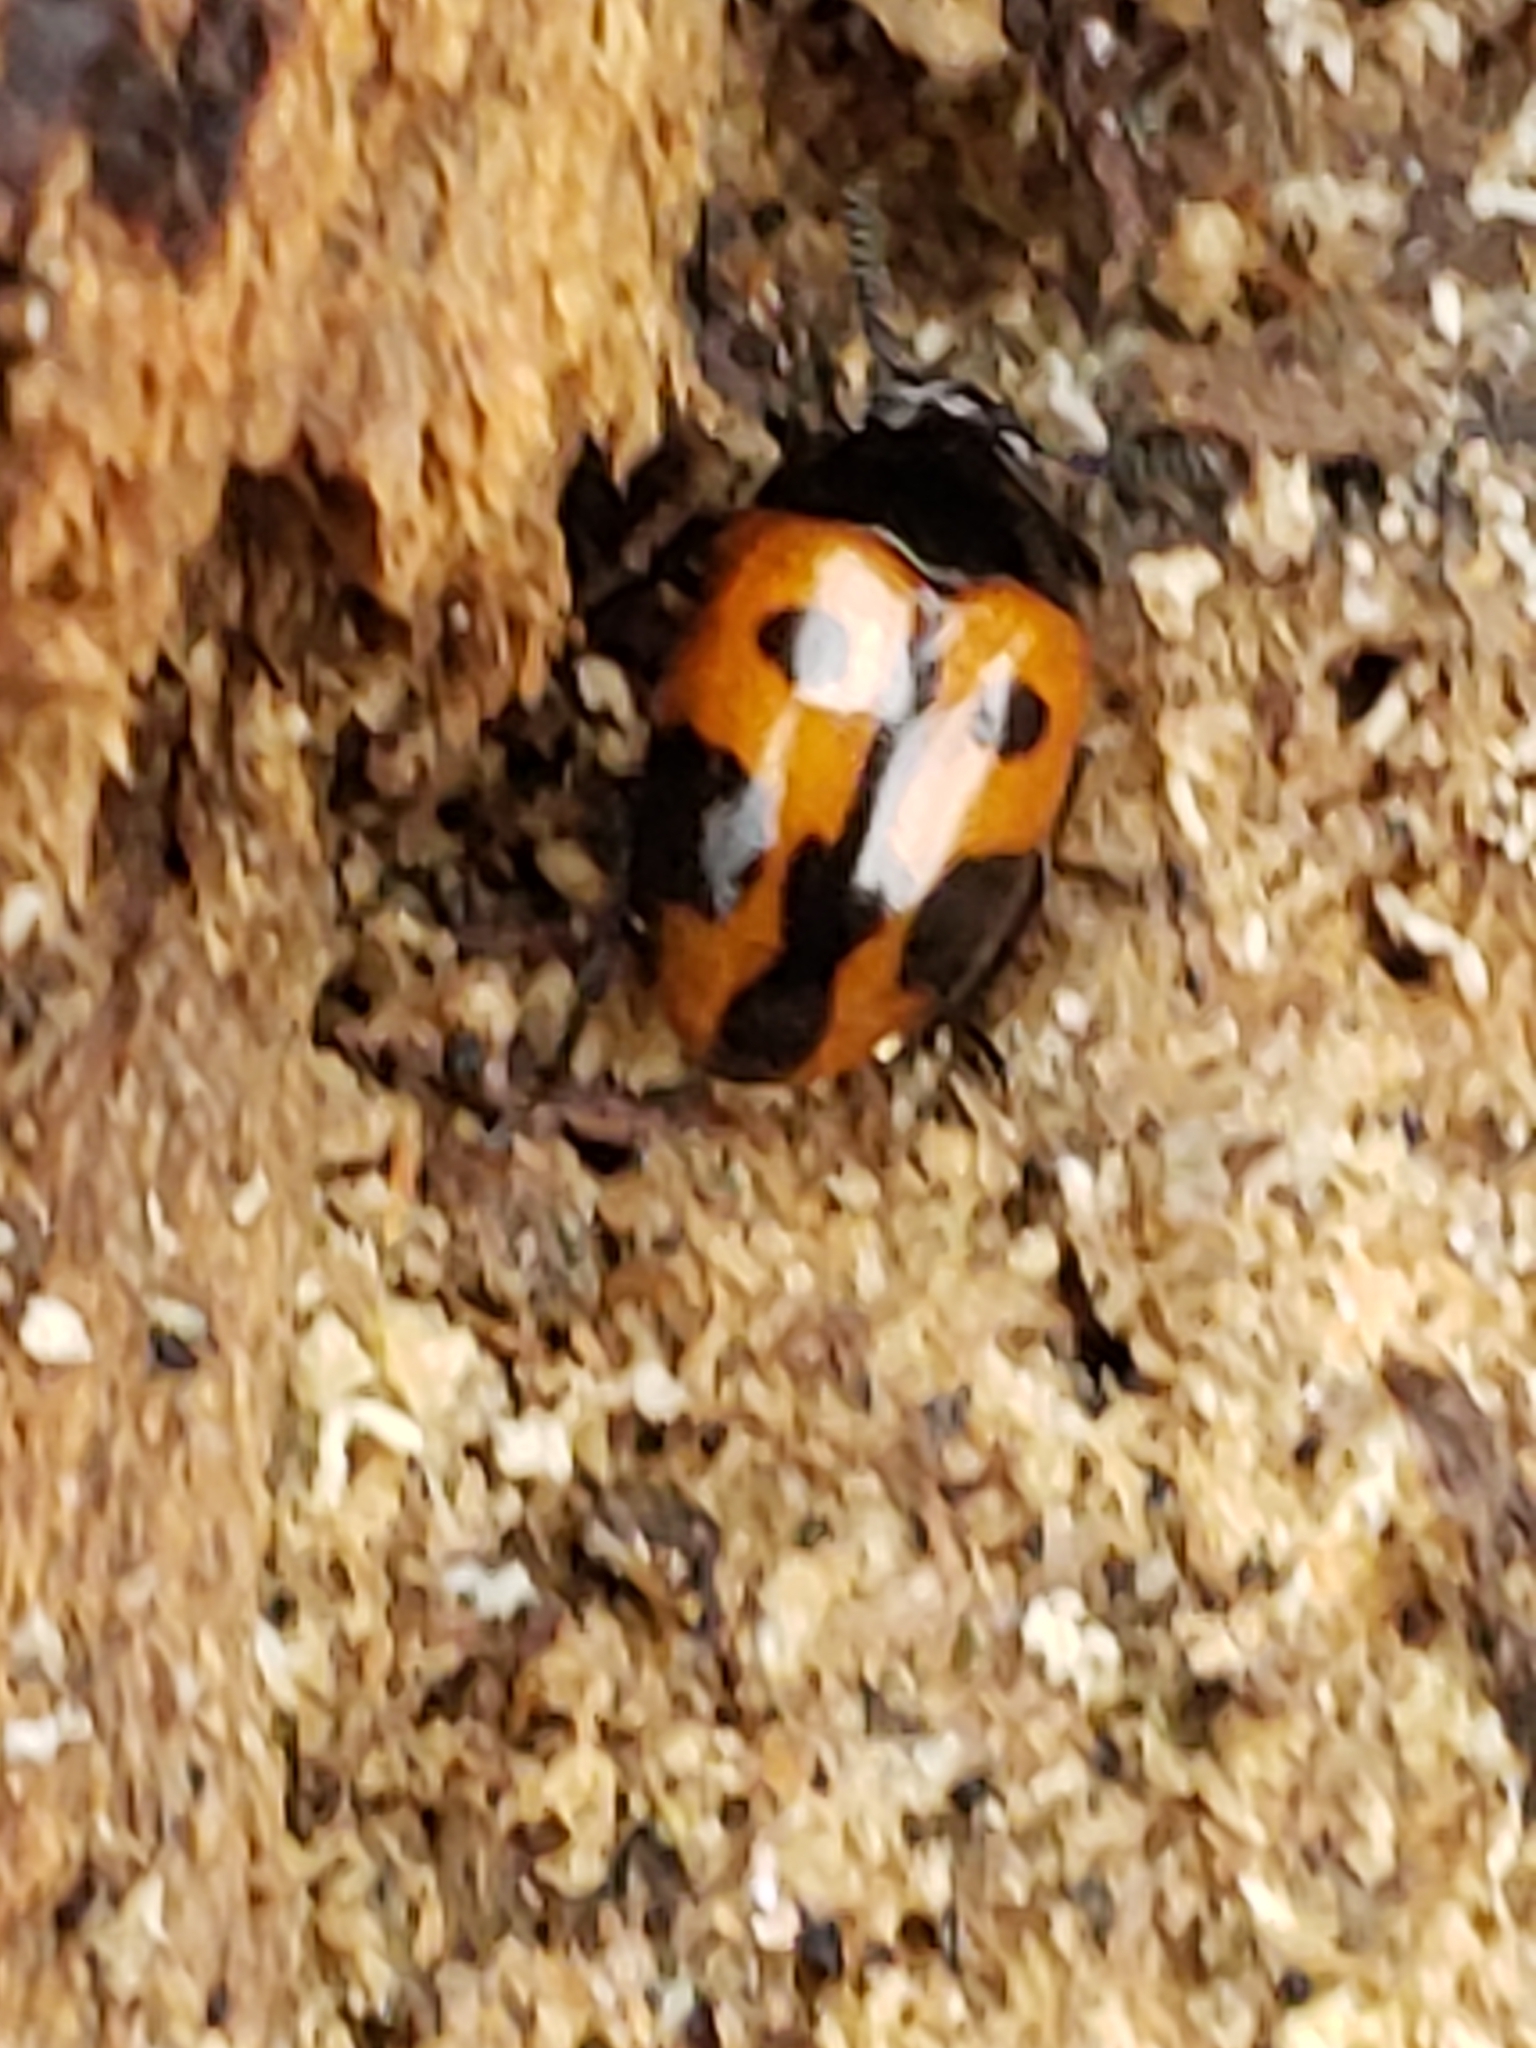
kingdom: Animalia
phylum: Arthropoda
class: Insecta
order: Coleoptera
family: Tenebrionidae
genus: Diaperis
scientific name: Diaperis maculata
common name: Darkling beetle
